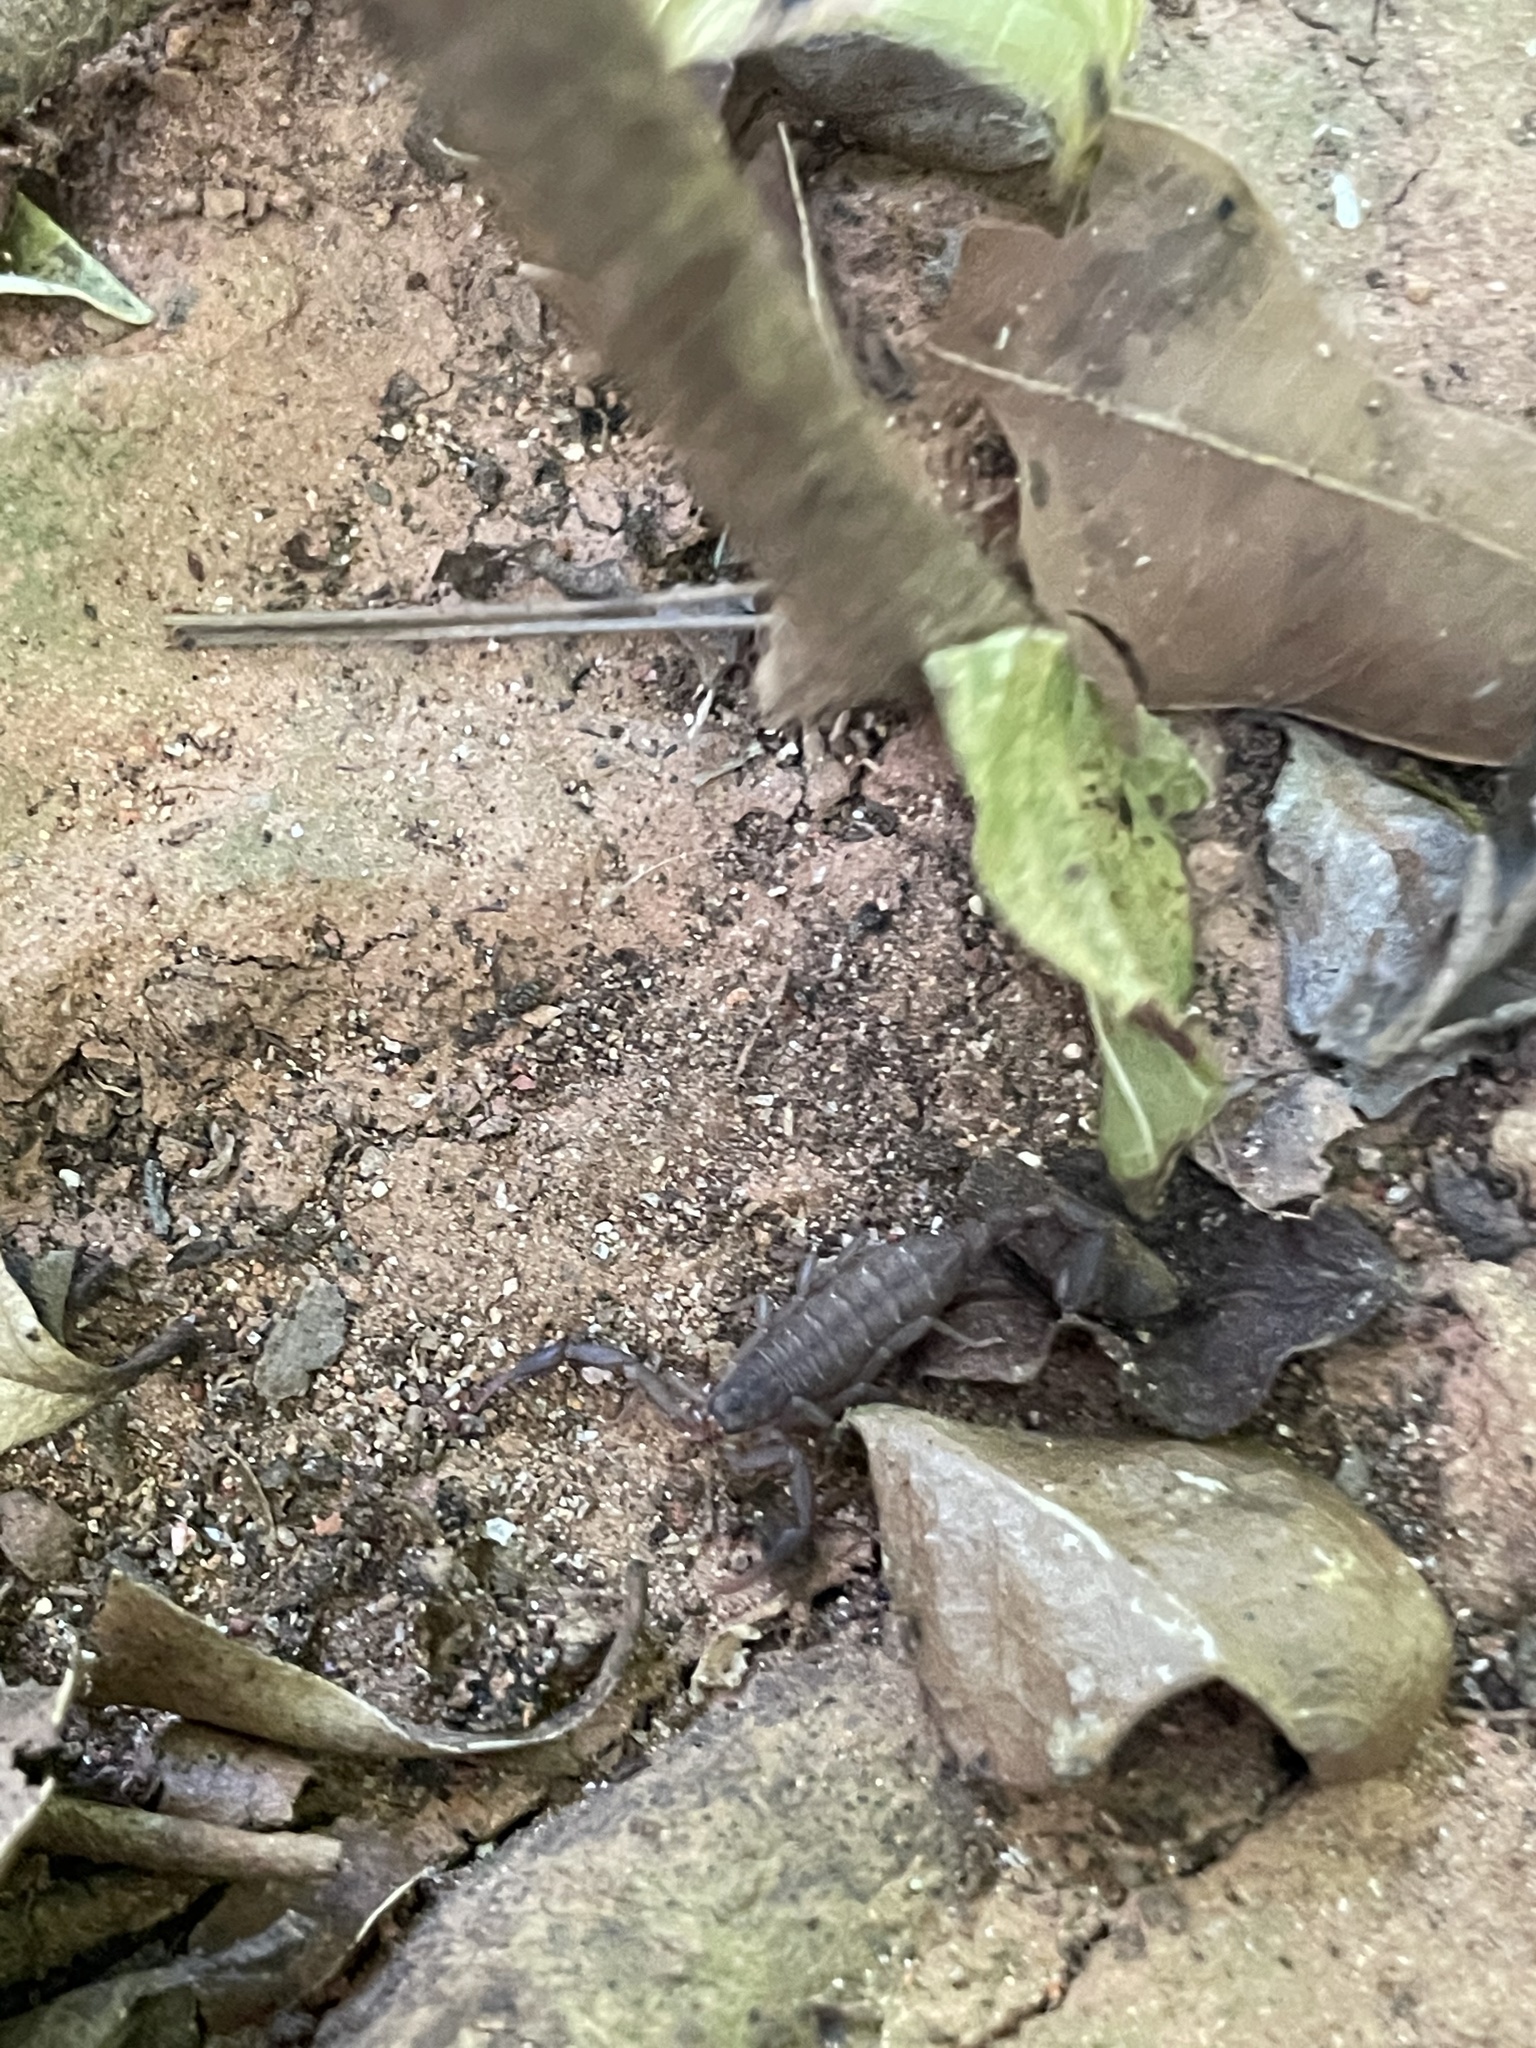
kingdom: Animalia
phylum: Arthropoda
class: Arachnida
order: Scorpiones
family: Vaejovidae
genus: Vaejovis
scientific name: Vaejovis janssi
